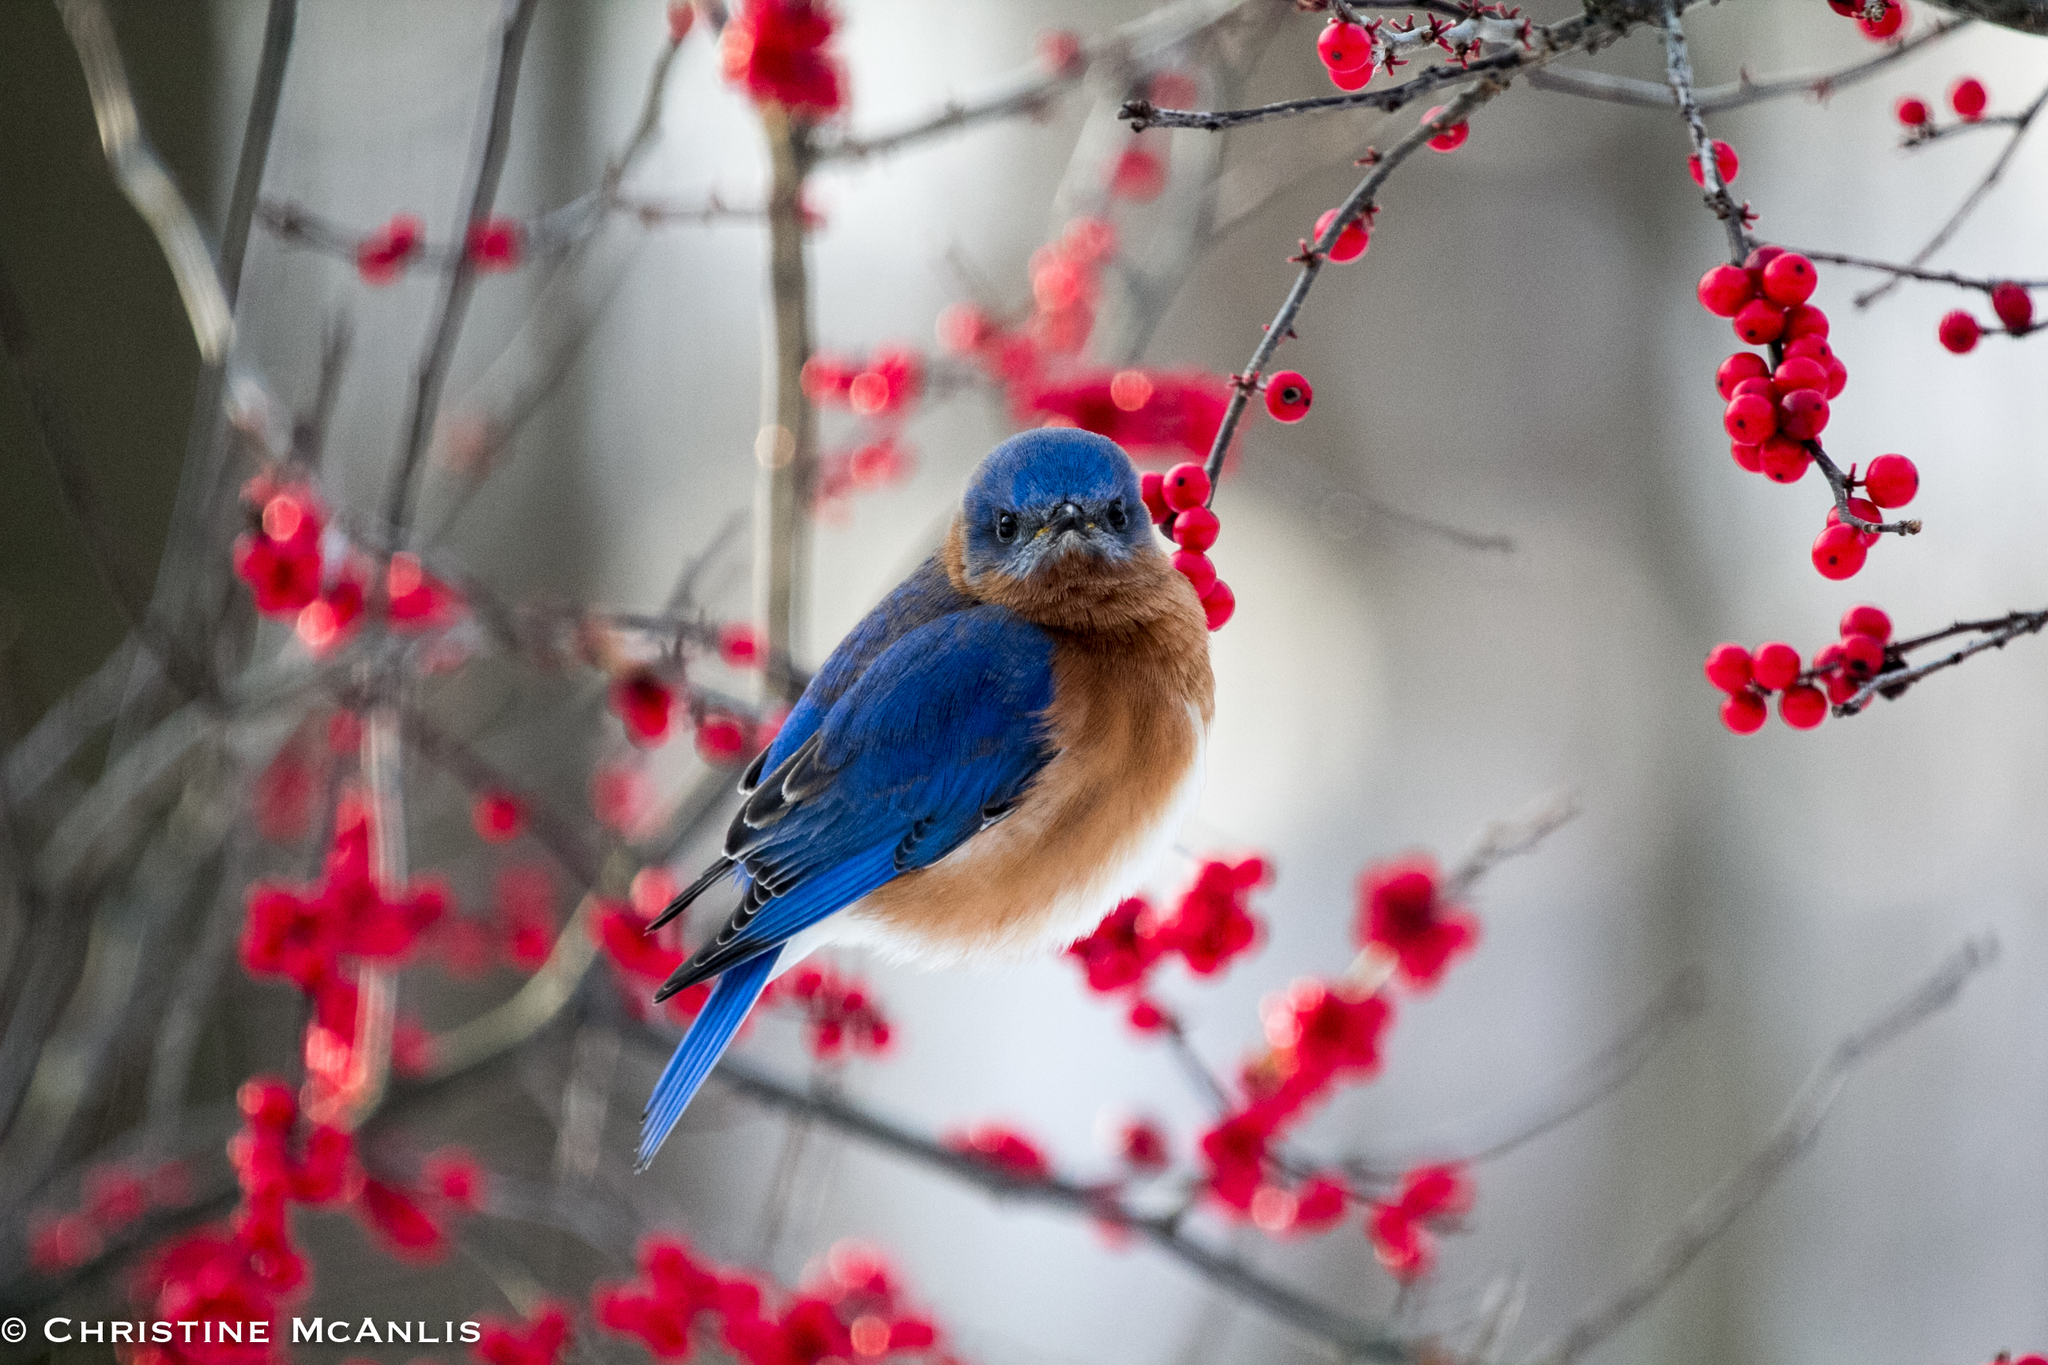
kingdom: Animalia
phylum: Chordata
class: Aves
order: Passeriformes
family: Turdidae
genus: Sialia
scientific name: Sialia sialis
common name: Eastern bluebird
